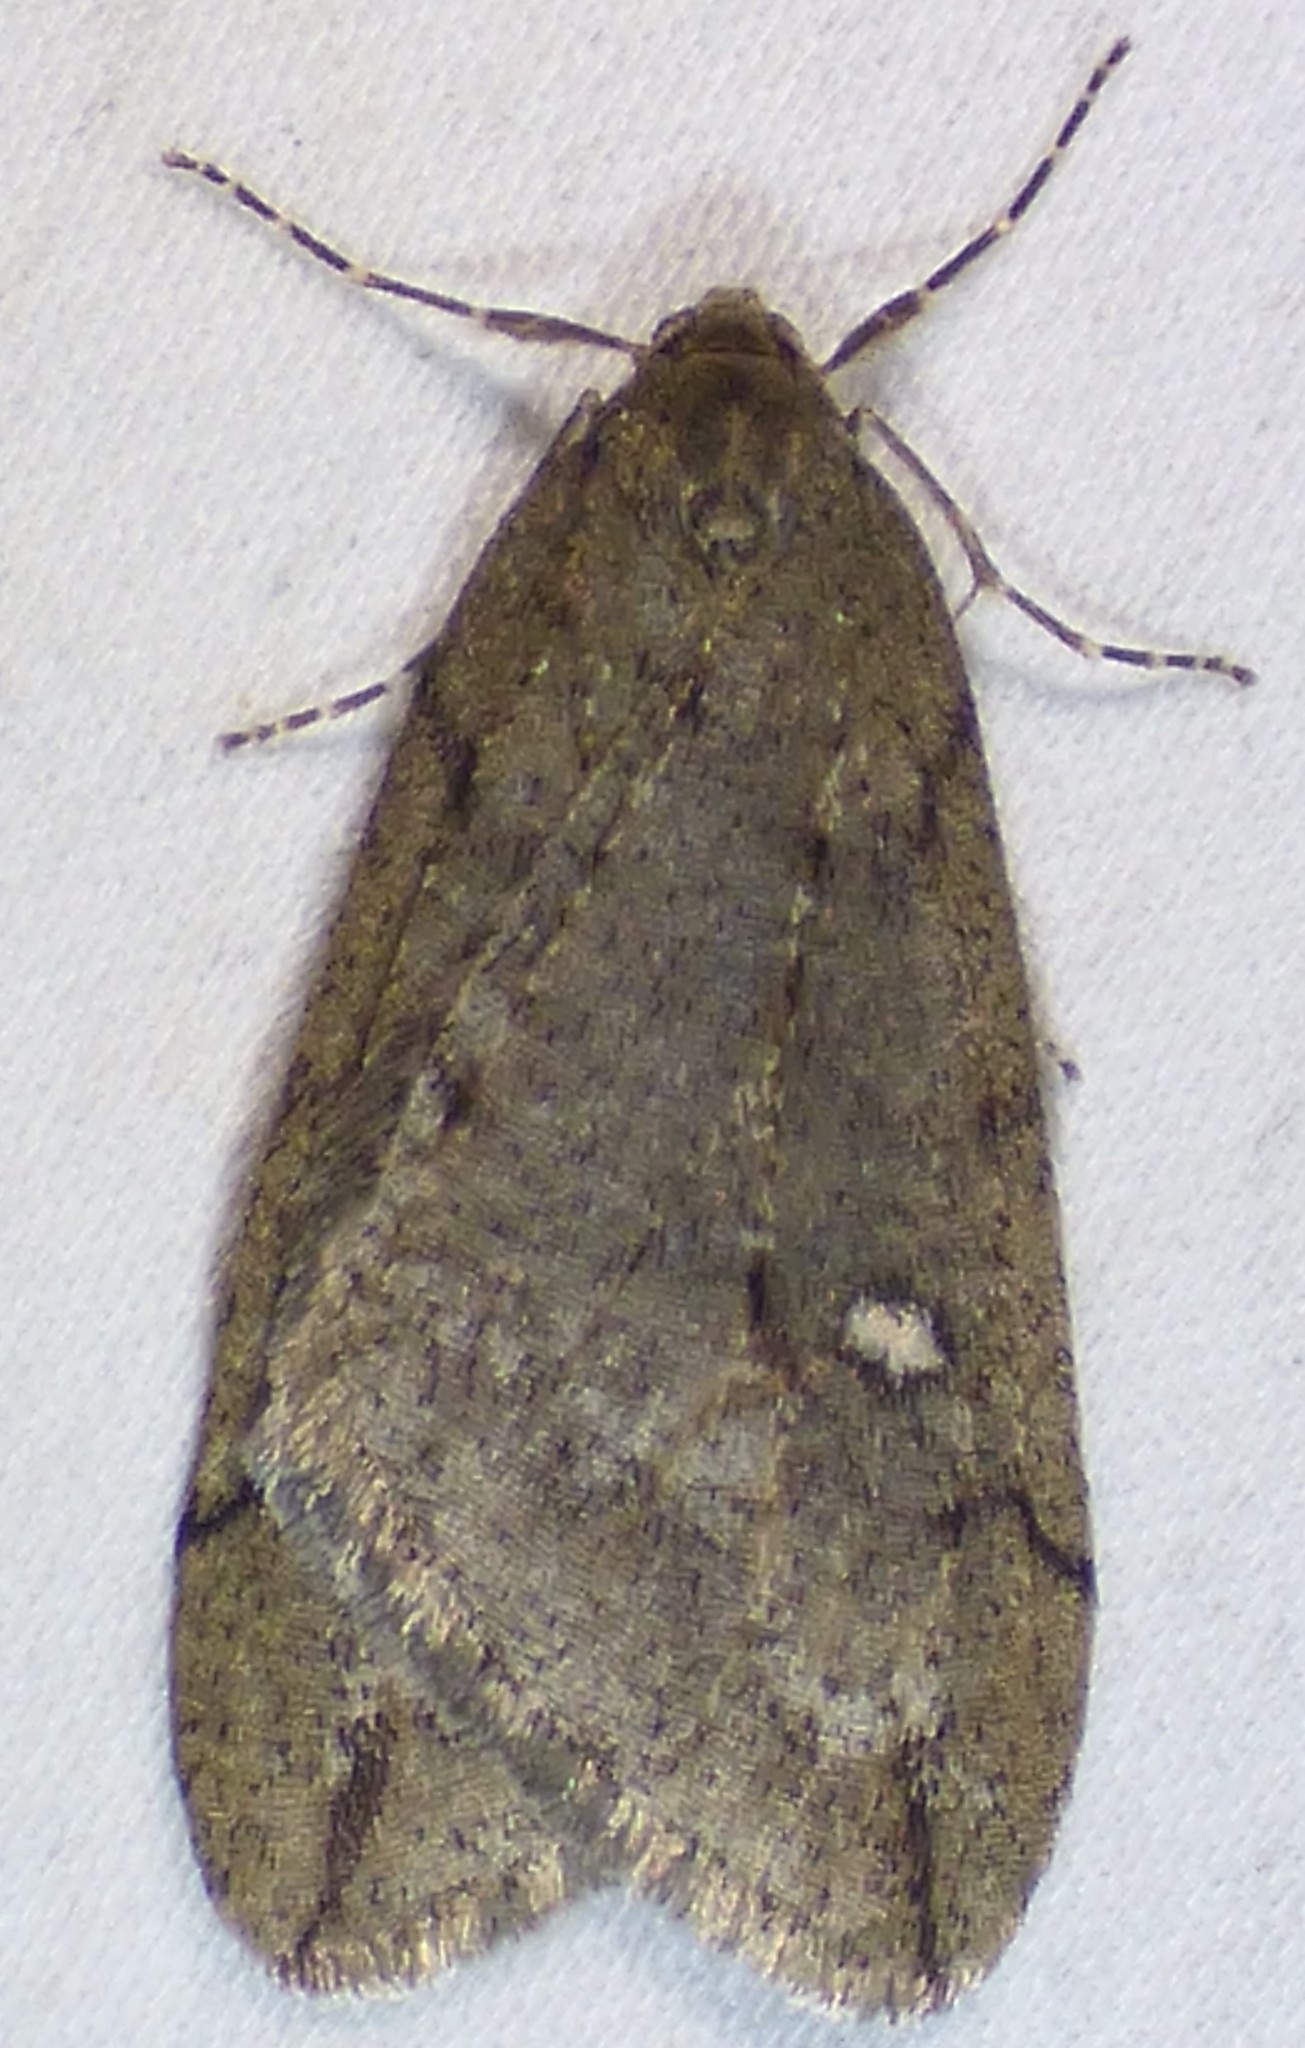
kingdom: Animalia
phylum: Arthropoda
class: Insecta
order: Lepidoptera
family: Geometridae
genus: Paleacrita
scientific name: Paleacrita merriccata
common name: White-spotted canker worm
